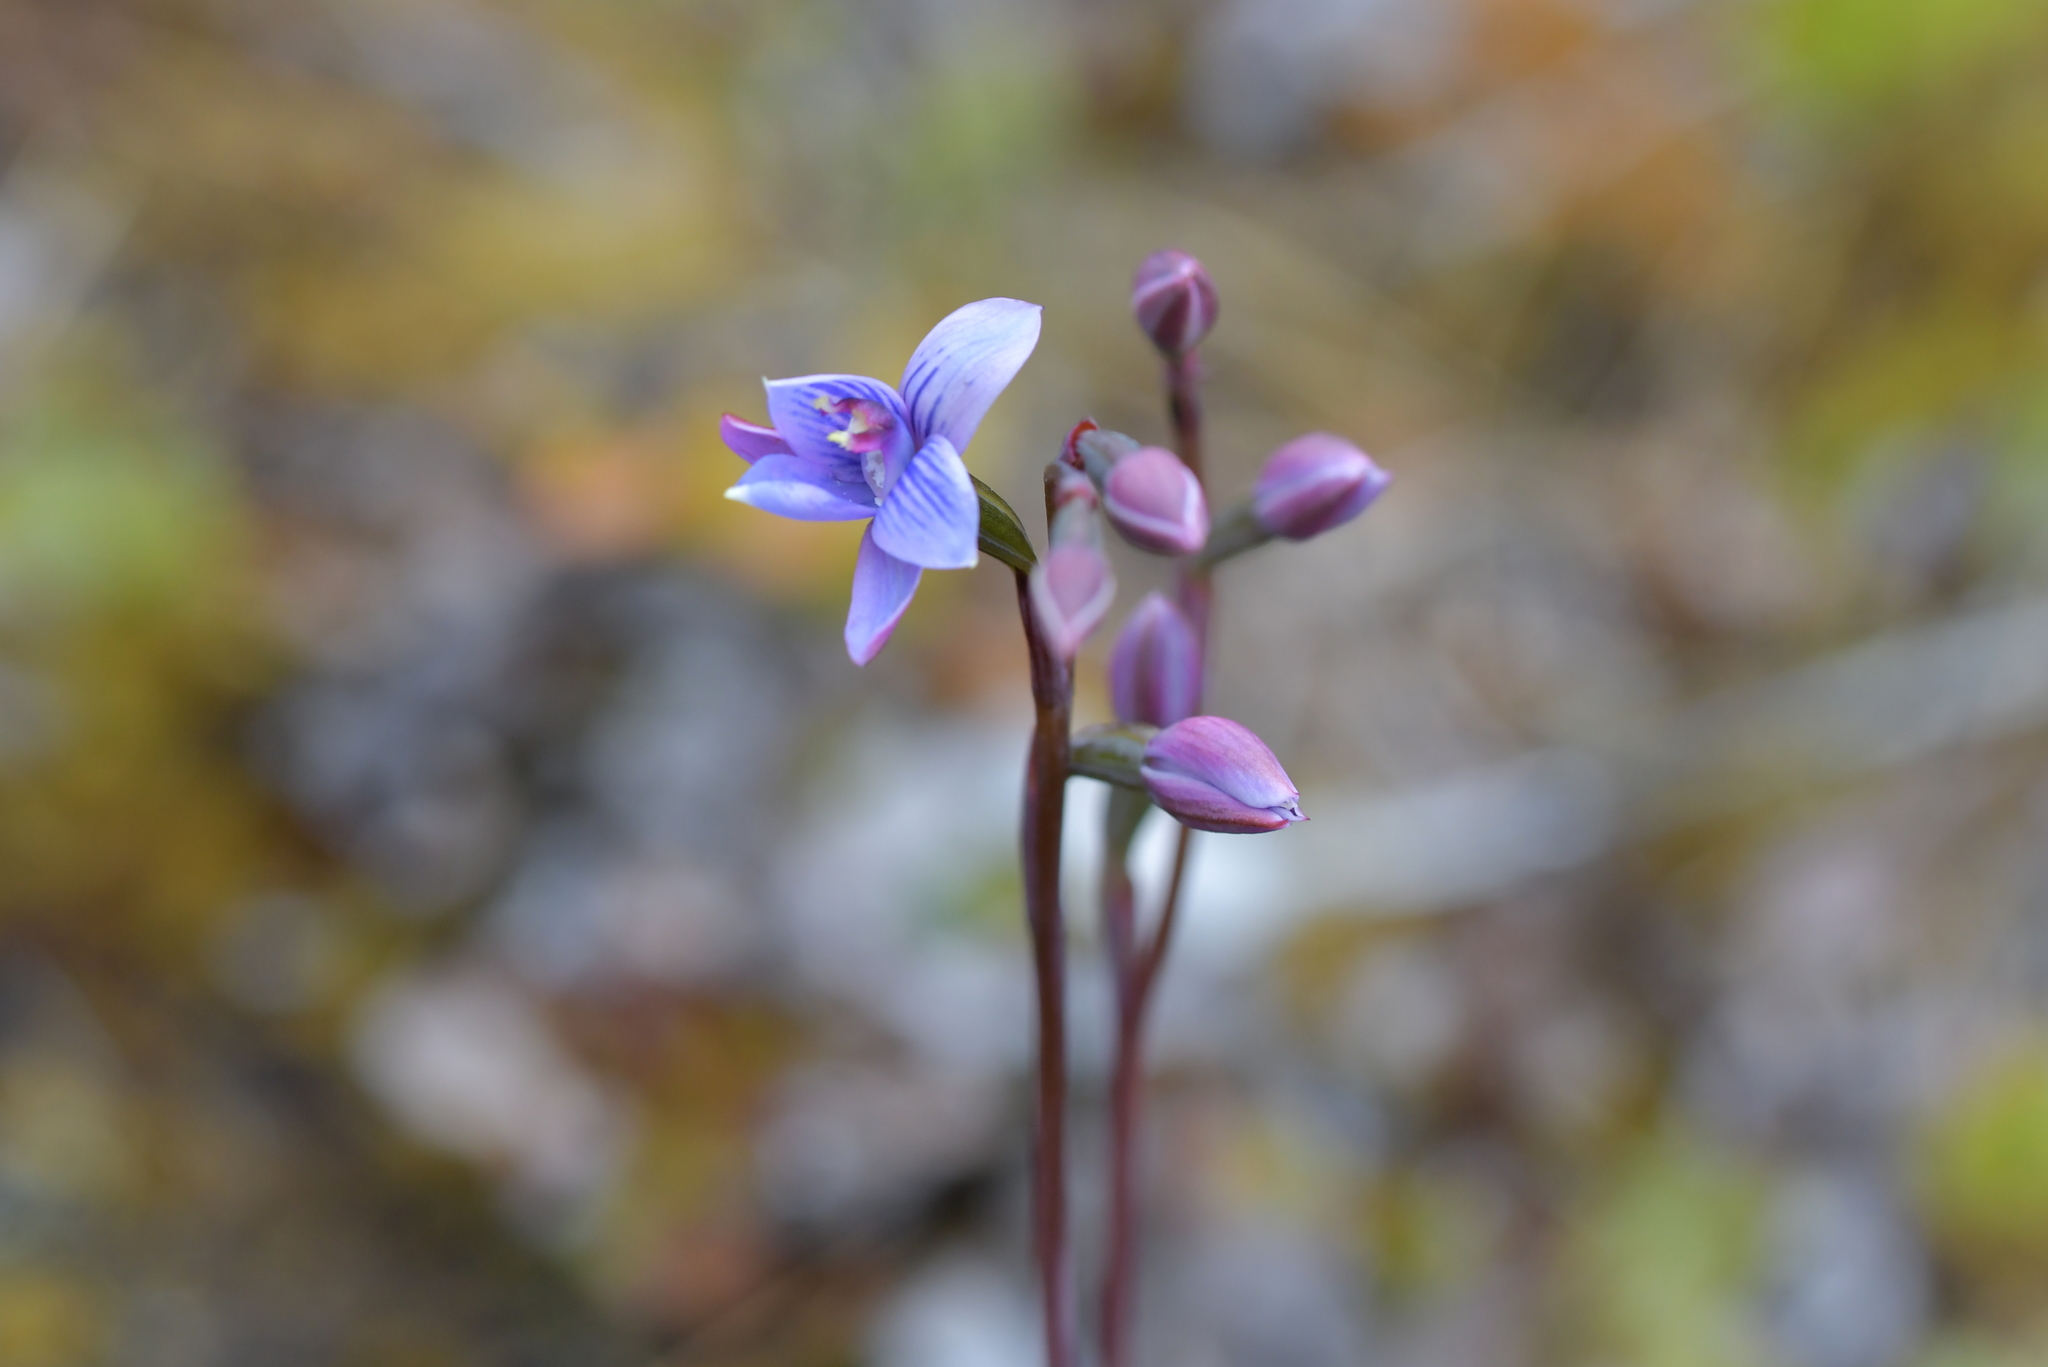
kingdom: Plantae
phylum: Tracheophyta
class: Liliopsida
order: Asparagales
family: Orchidaceae
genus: Thelymitra
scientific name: Thelymitra pulchella
